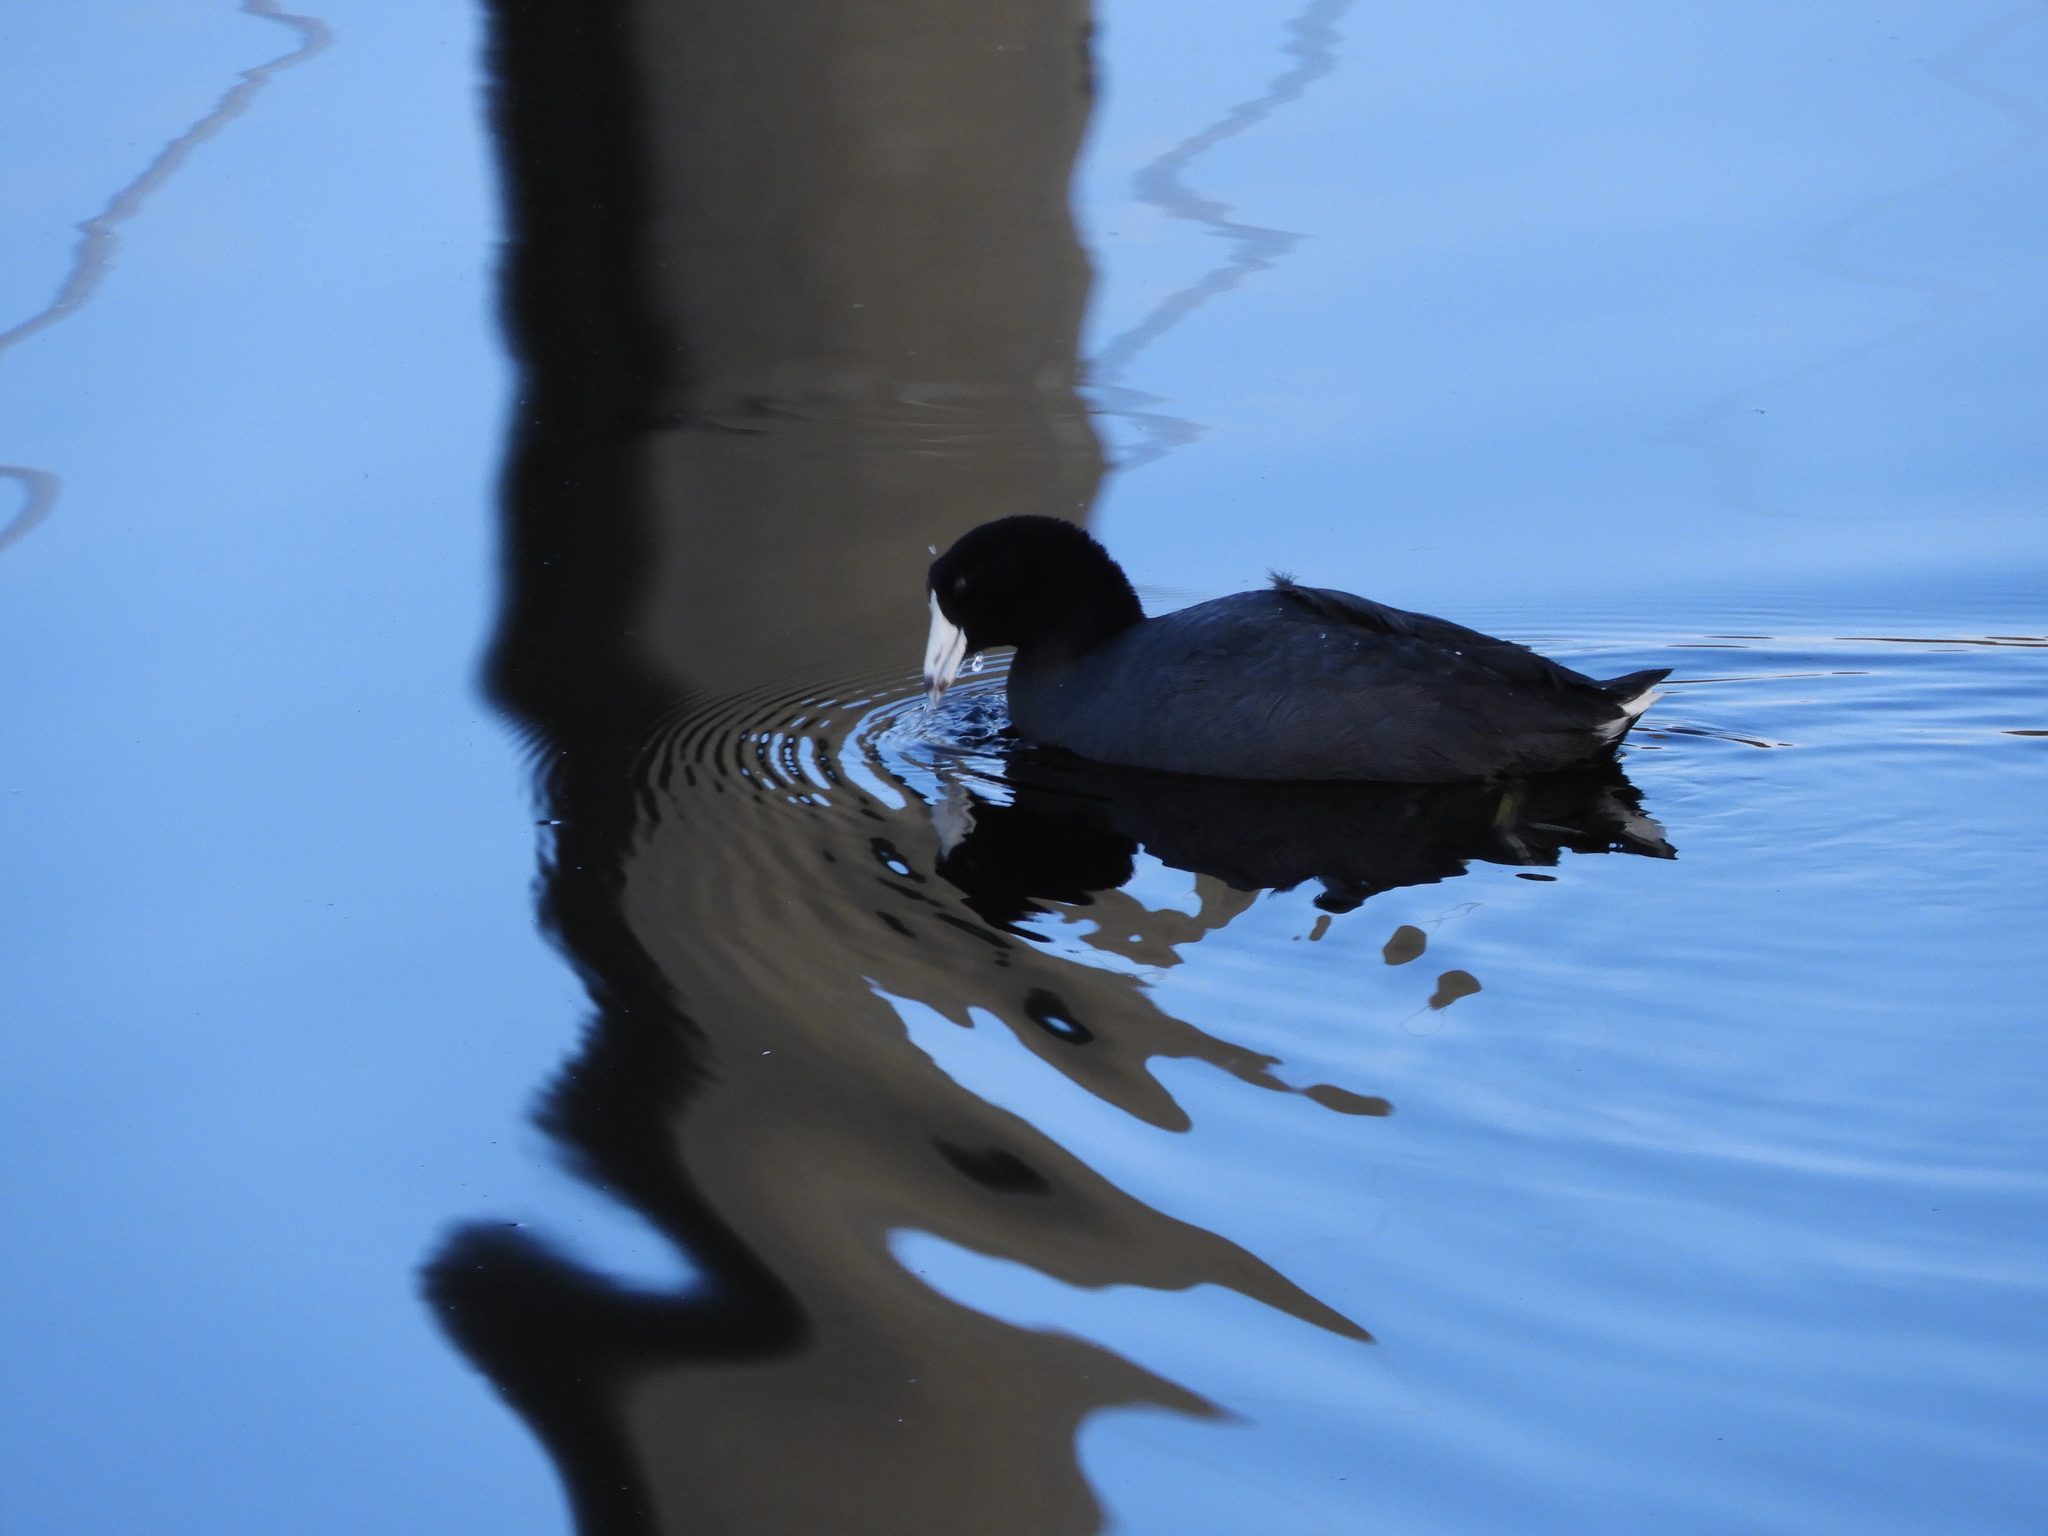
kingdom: Animalia
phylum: Chordata
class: Aves
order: Gruiformes
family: Rallidae
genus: Fulica
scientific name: Fulica americana
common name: American coot
